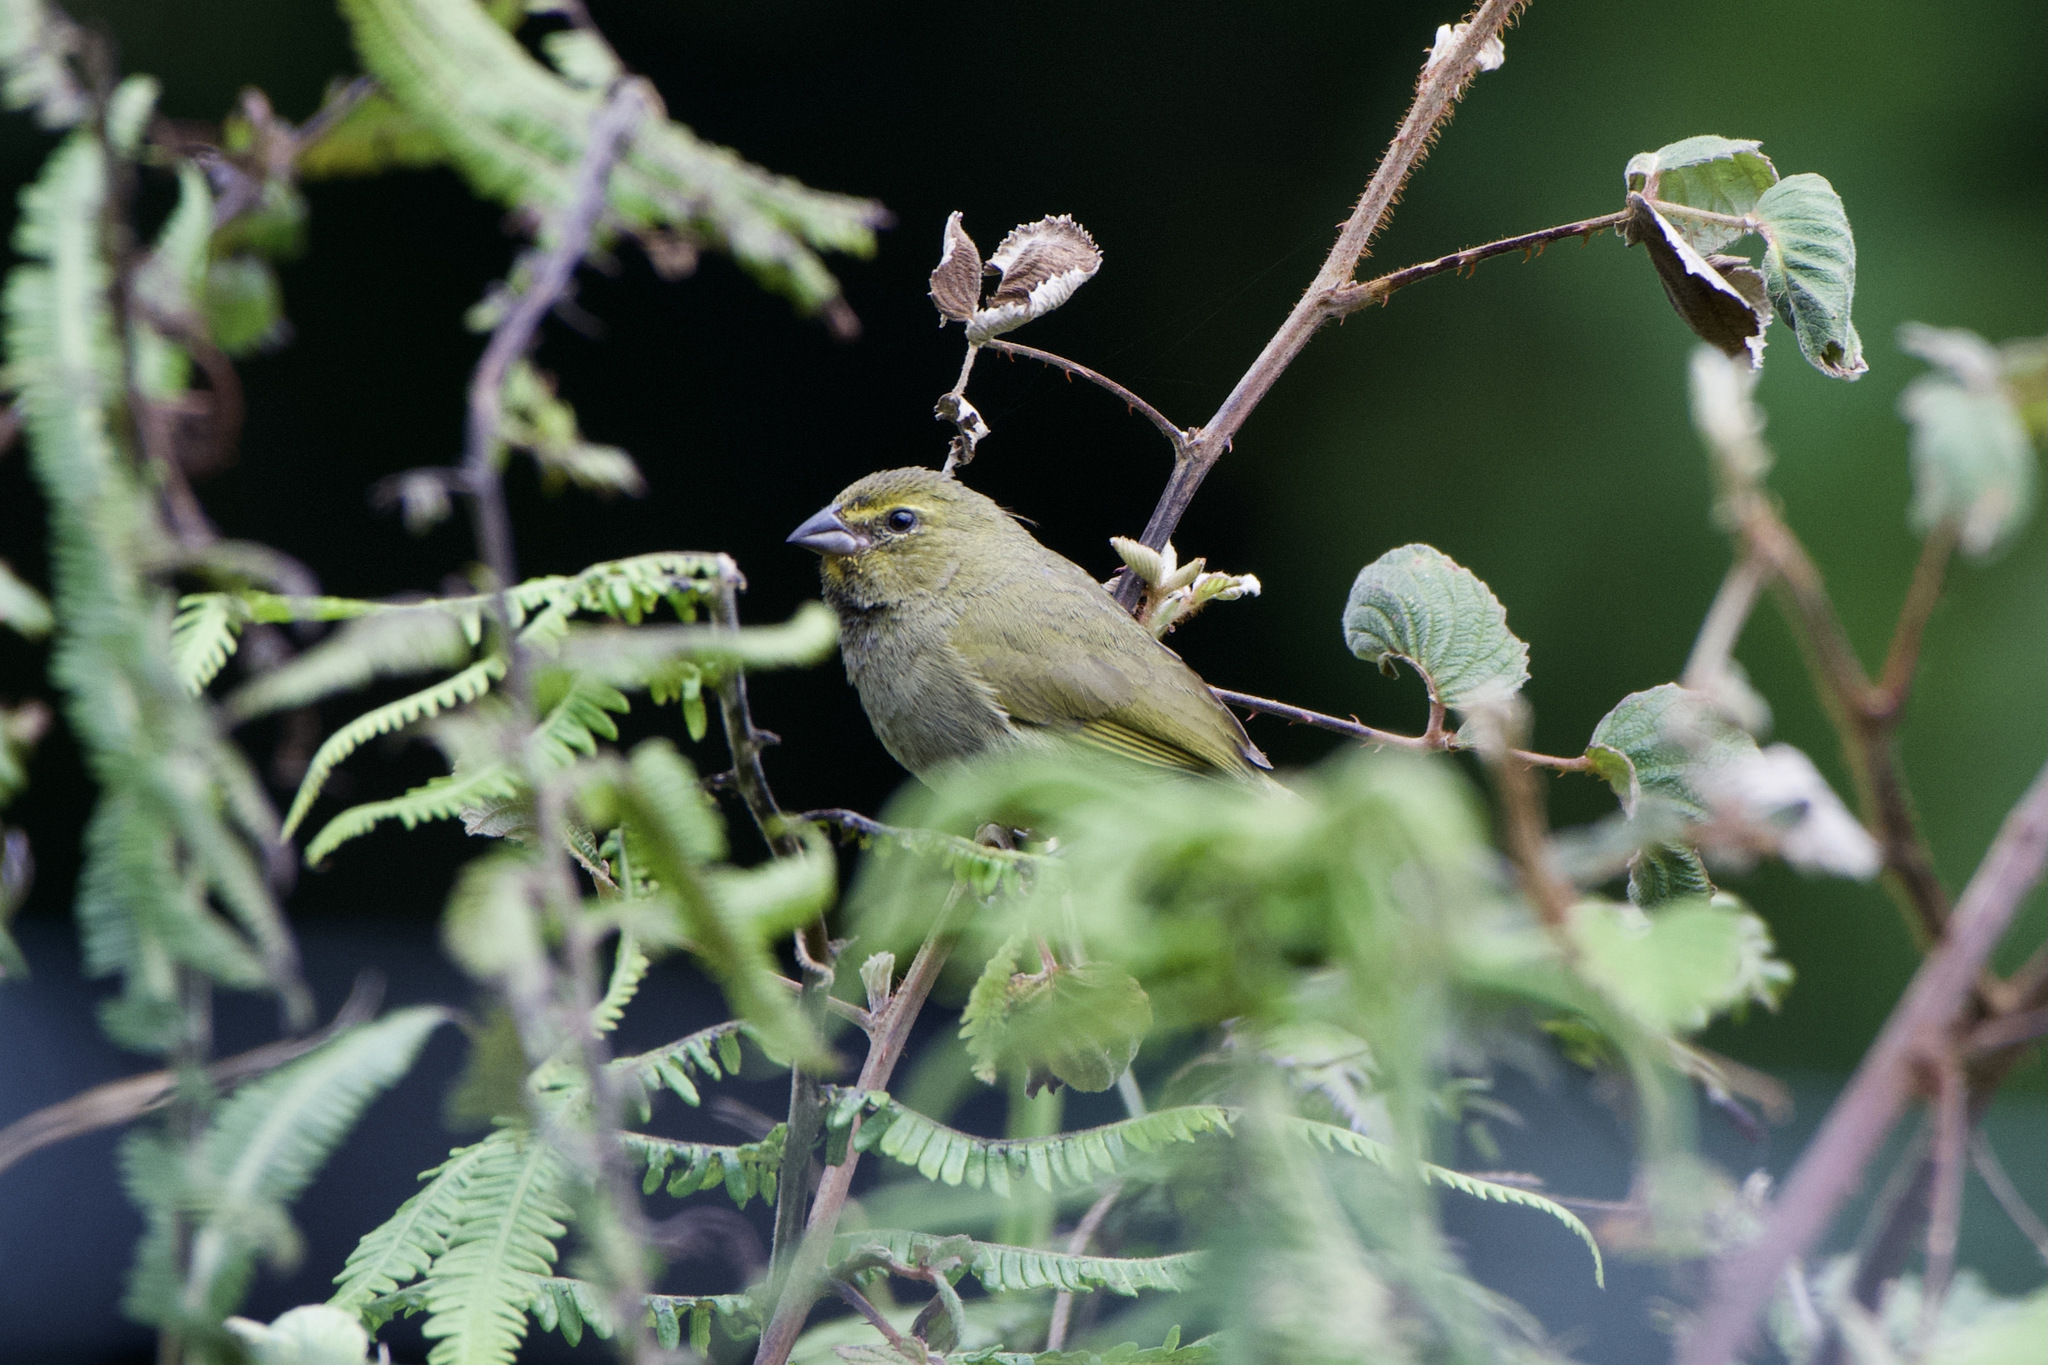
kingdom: Animalia
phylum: Chordata
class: Aves
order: Passeriformes
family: Thraupidae
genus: Tiaris
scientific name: Tiaris olivaceus
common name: Yellow-faced grassquit
